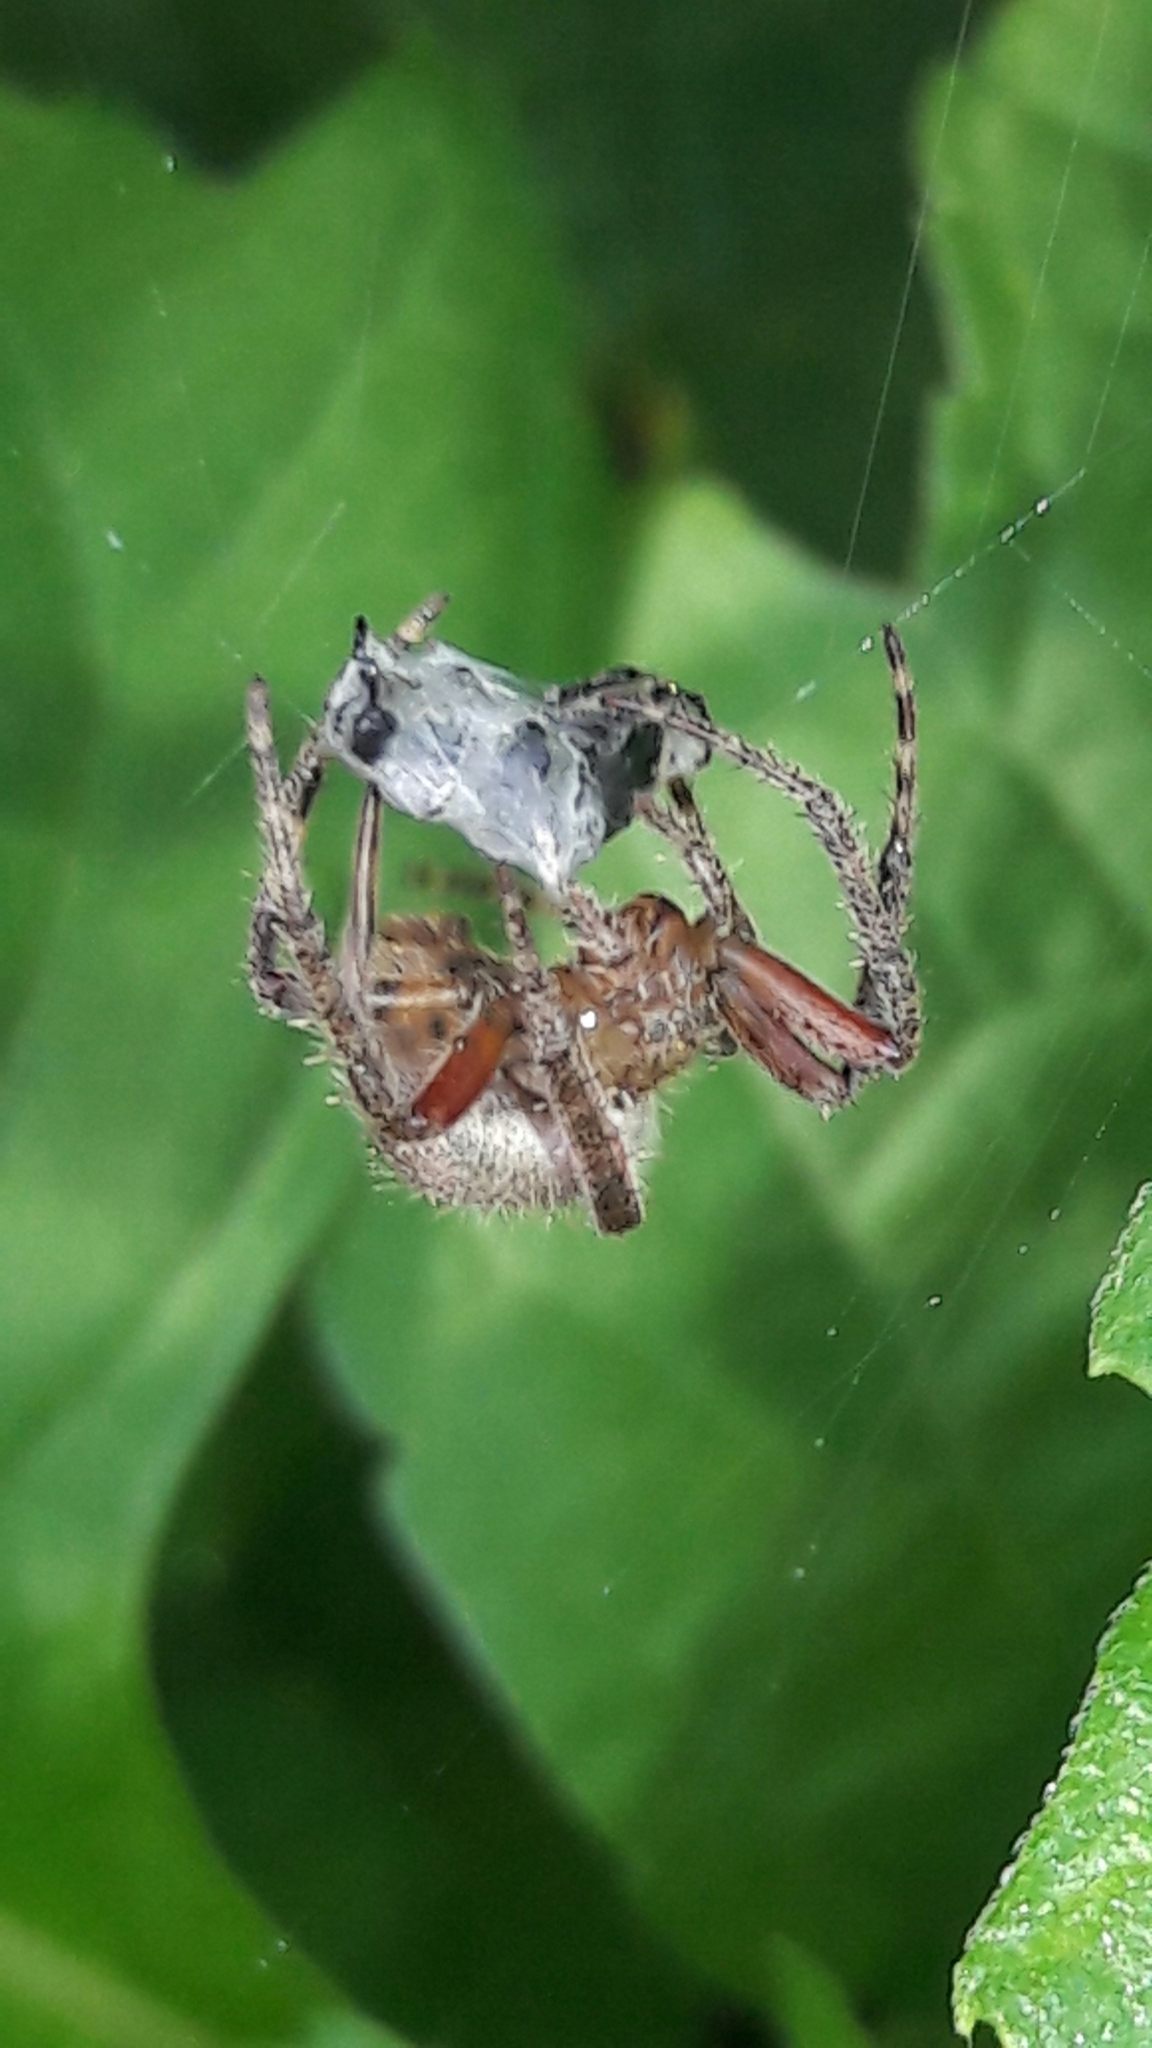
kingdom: Animalia
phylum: Arthropoda
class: Arachnida
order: Araneae
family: Araneidae
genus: Eriophora
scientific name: Eriophora edax
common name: Orb weavers
